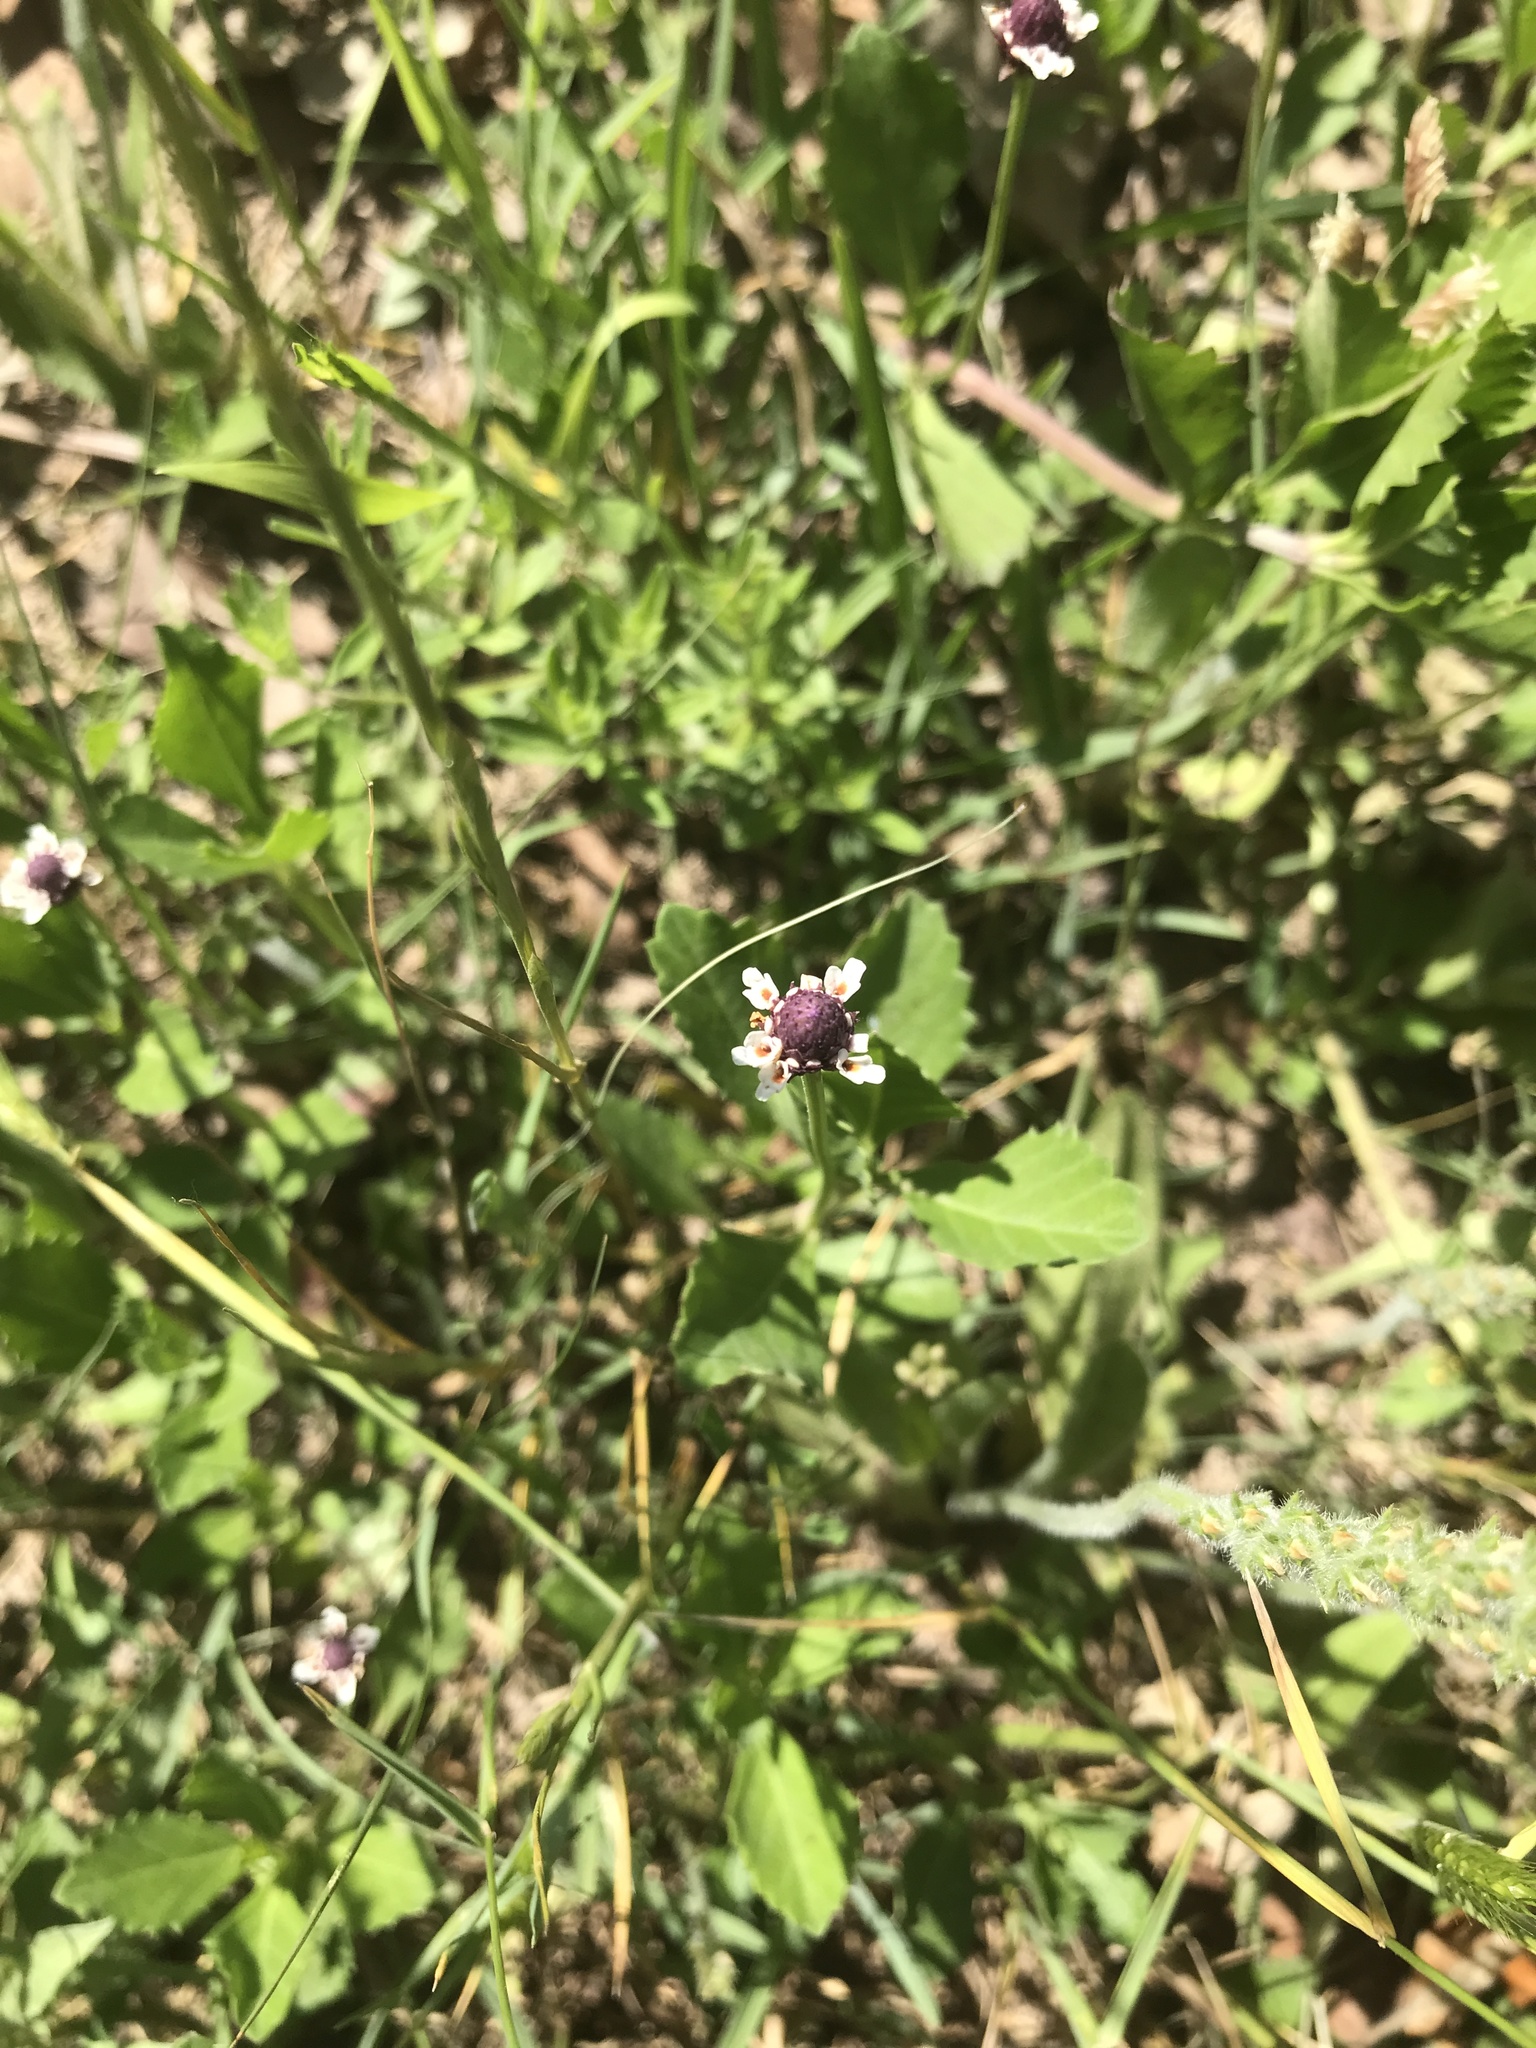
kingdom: Plantae
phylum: Tracheophyta
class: Magnoliopsida
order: Lamiales
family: Verbenaceae
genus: Phyla
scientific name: Phyla nodiflora
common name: Frogfruit
